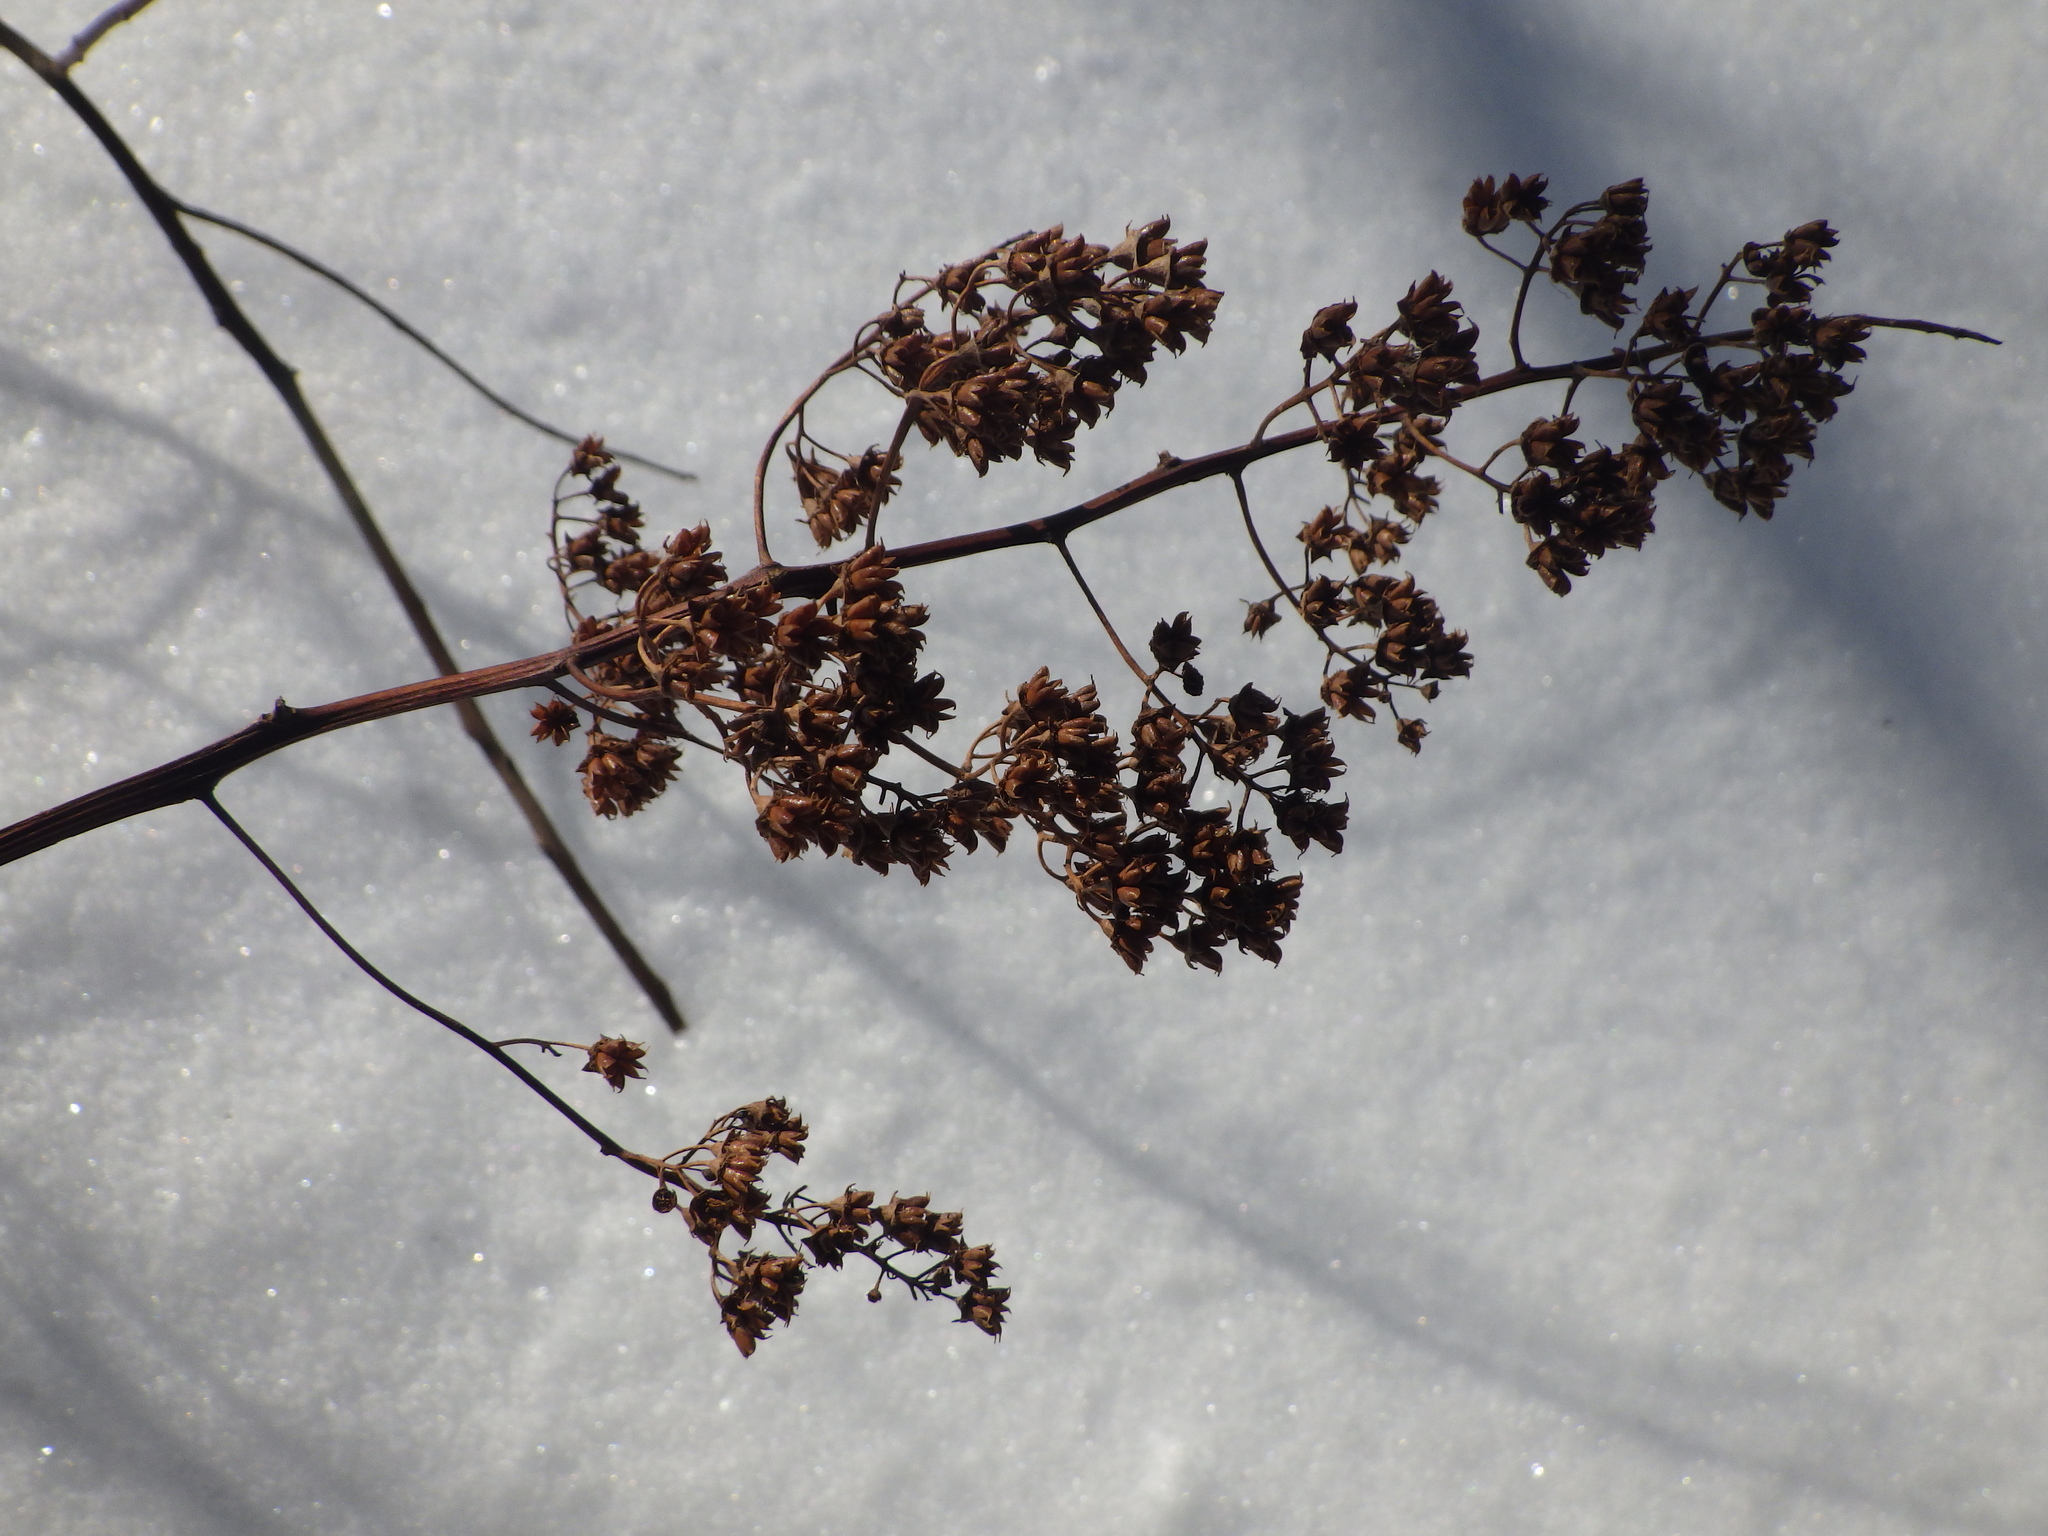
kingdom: Plantae
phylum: Tracheophyta
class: Magnoliopsida
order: Rosales
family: Rosaceae
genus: Spiraea
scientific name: Spiraea alba
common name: Pale bridewort
